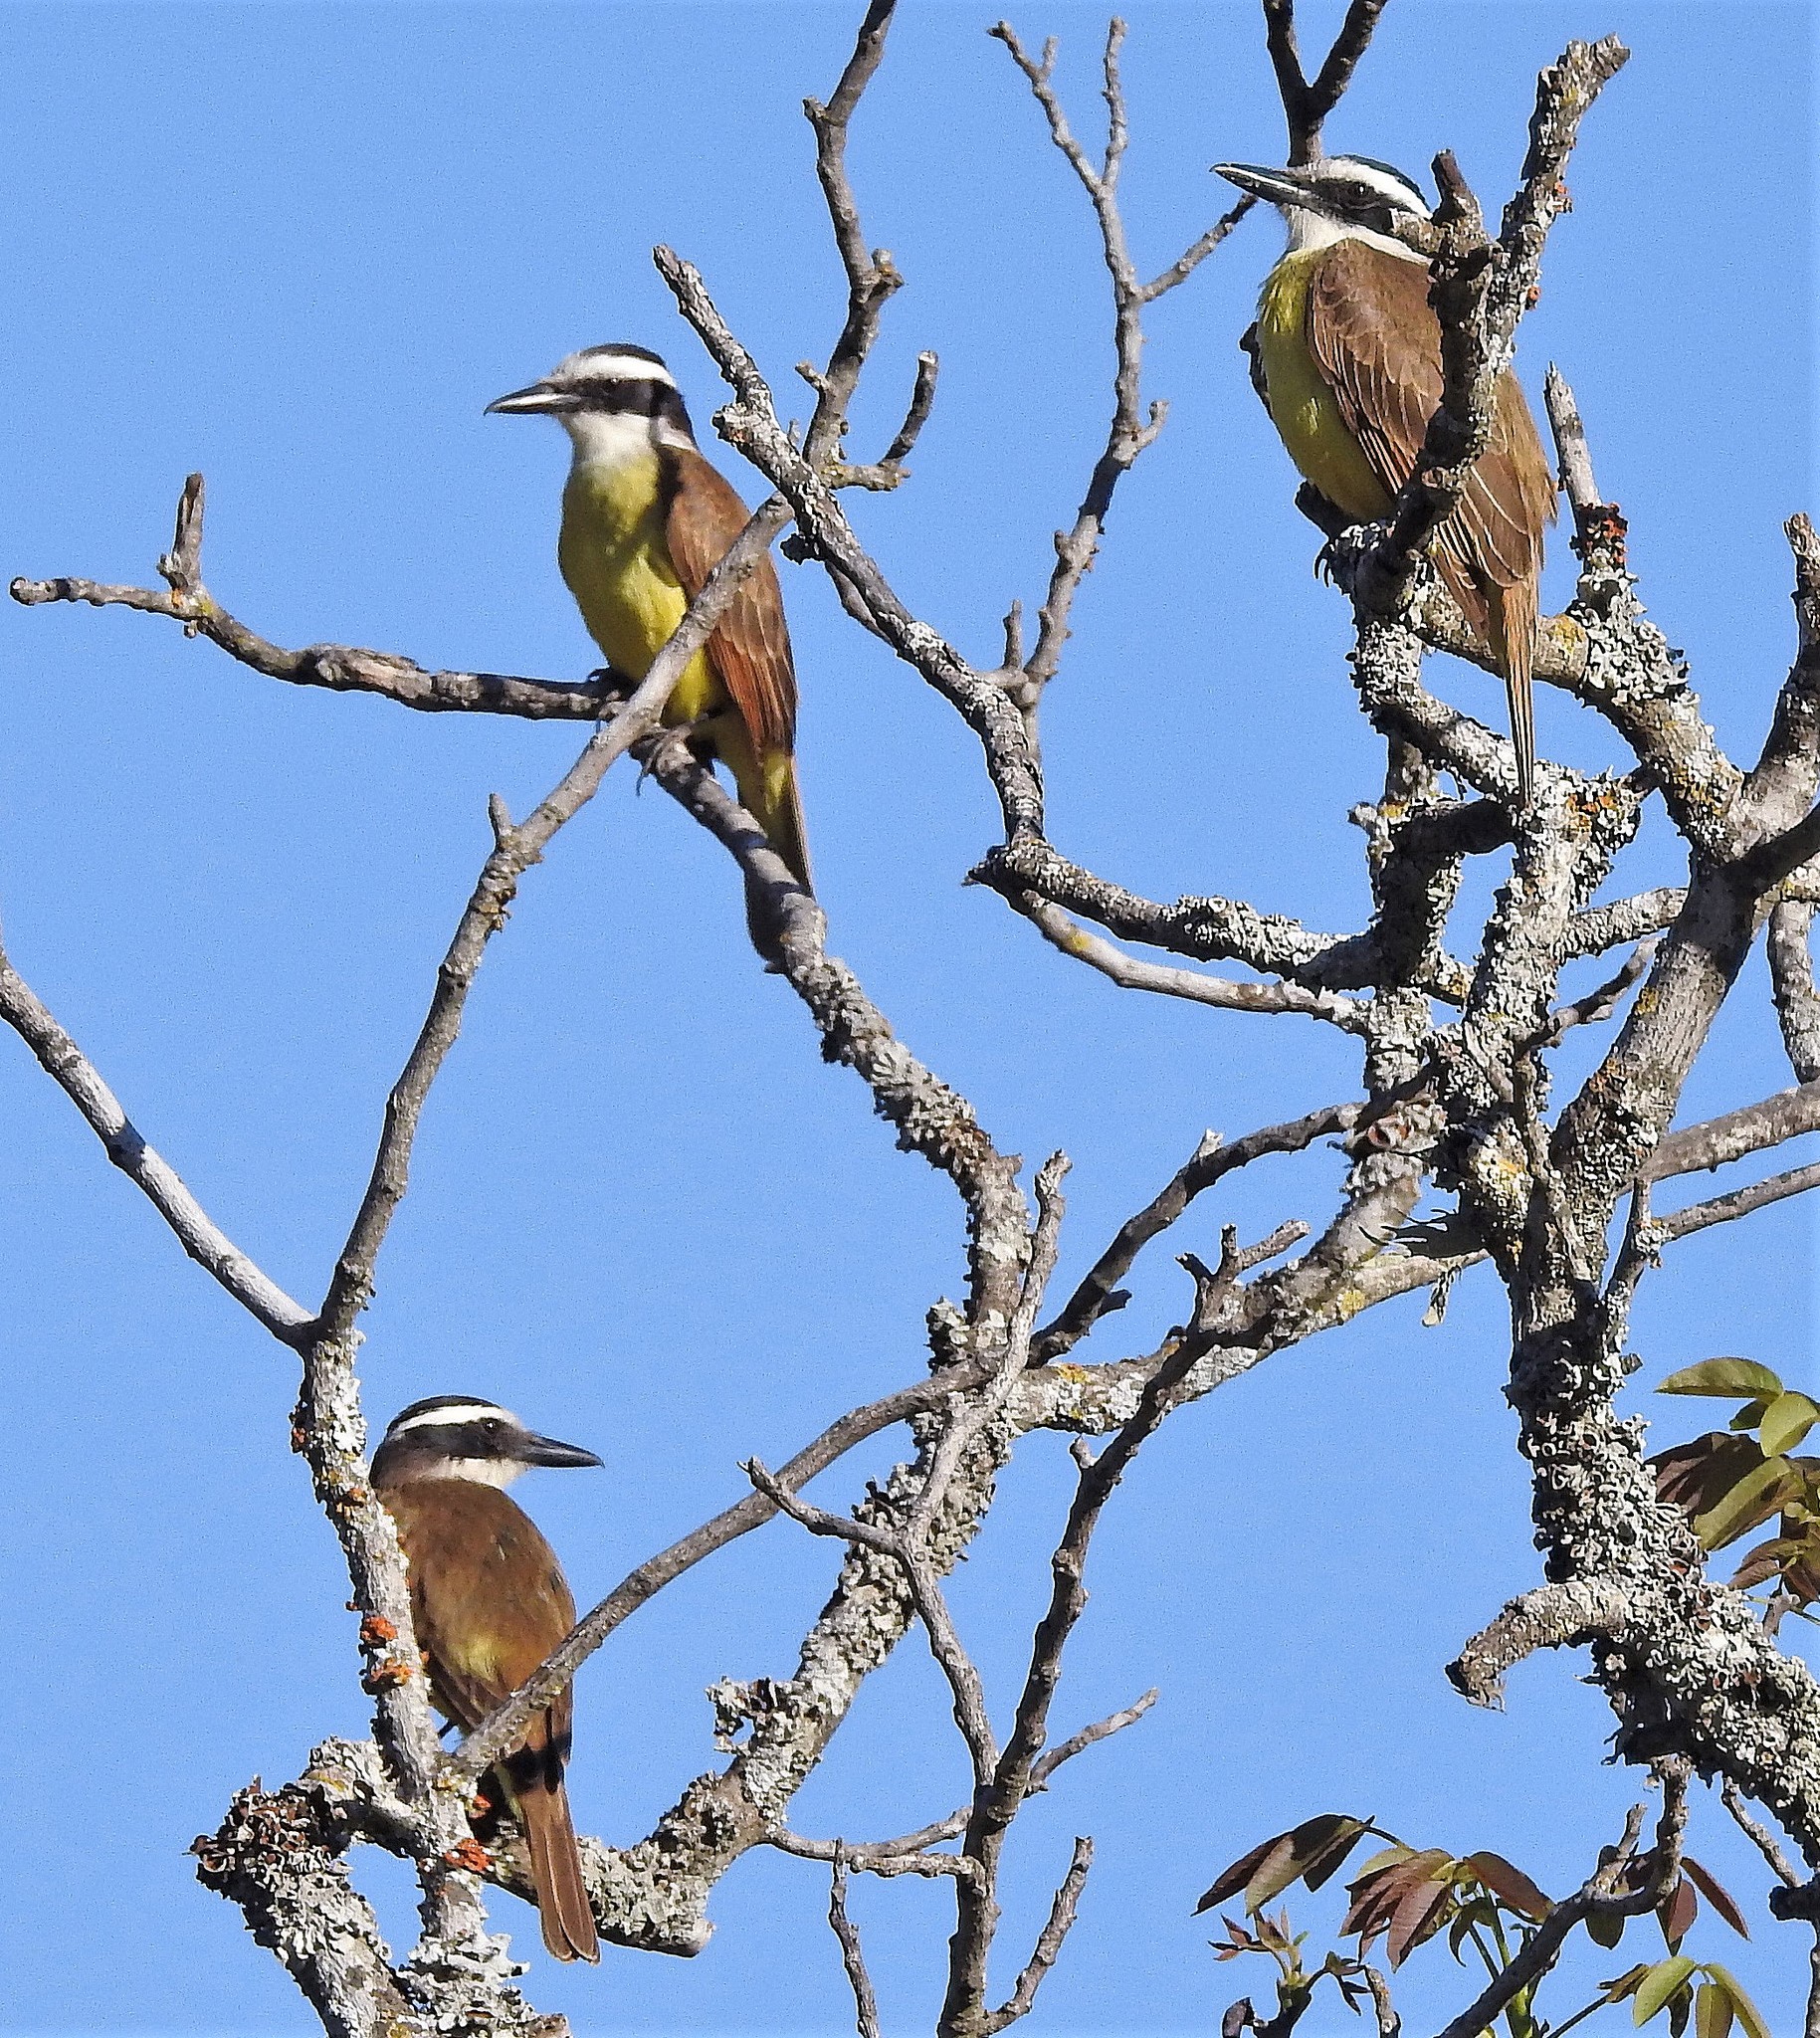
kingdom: Animalia
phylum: Chordata
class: Aves
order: Passeriformes
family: Tyrannidae
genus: Pitangus
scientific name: Pitangus sulphuratus
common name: Great kiskadee
